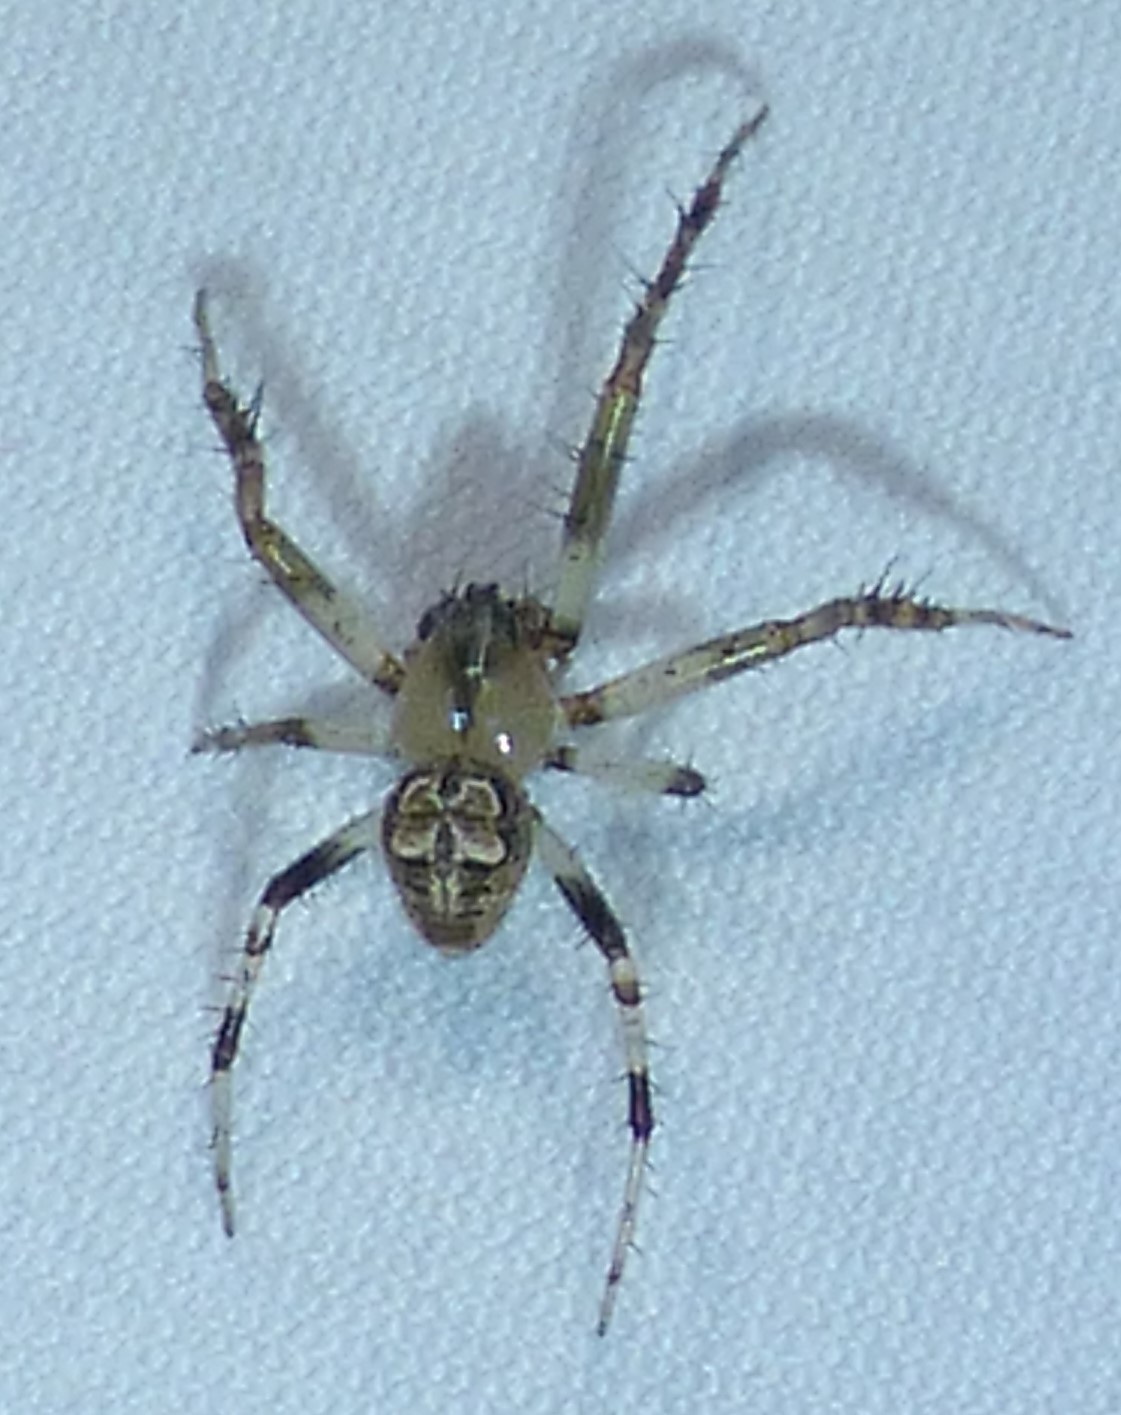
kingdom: Animalia
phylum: Arthropoda
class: Arachnida
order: Araneae
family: Araneidae
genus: Araneus
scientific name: Araneus pegnia
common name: Orb weavers
